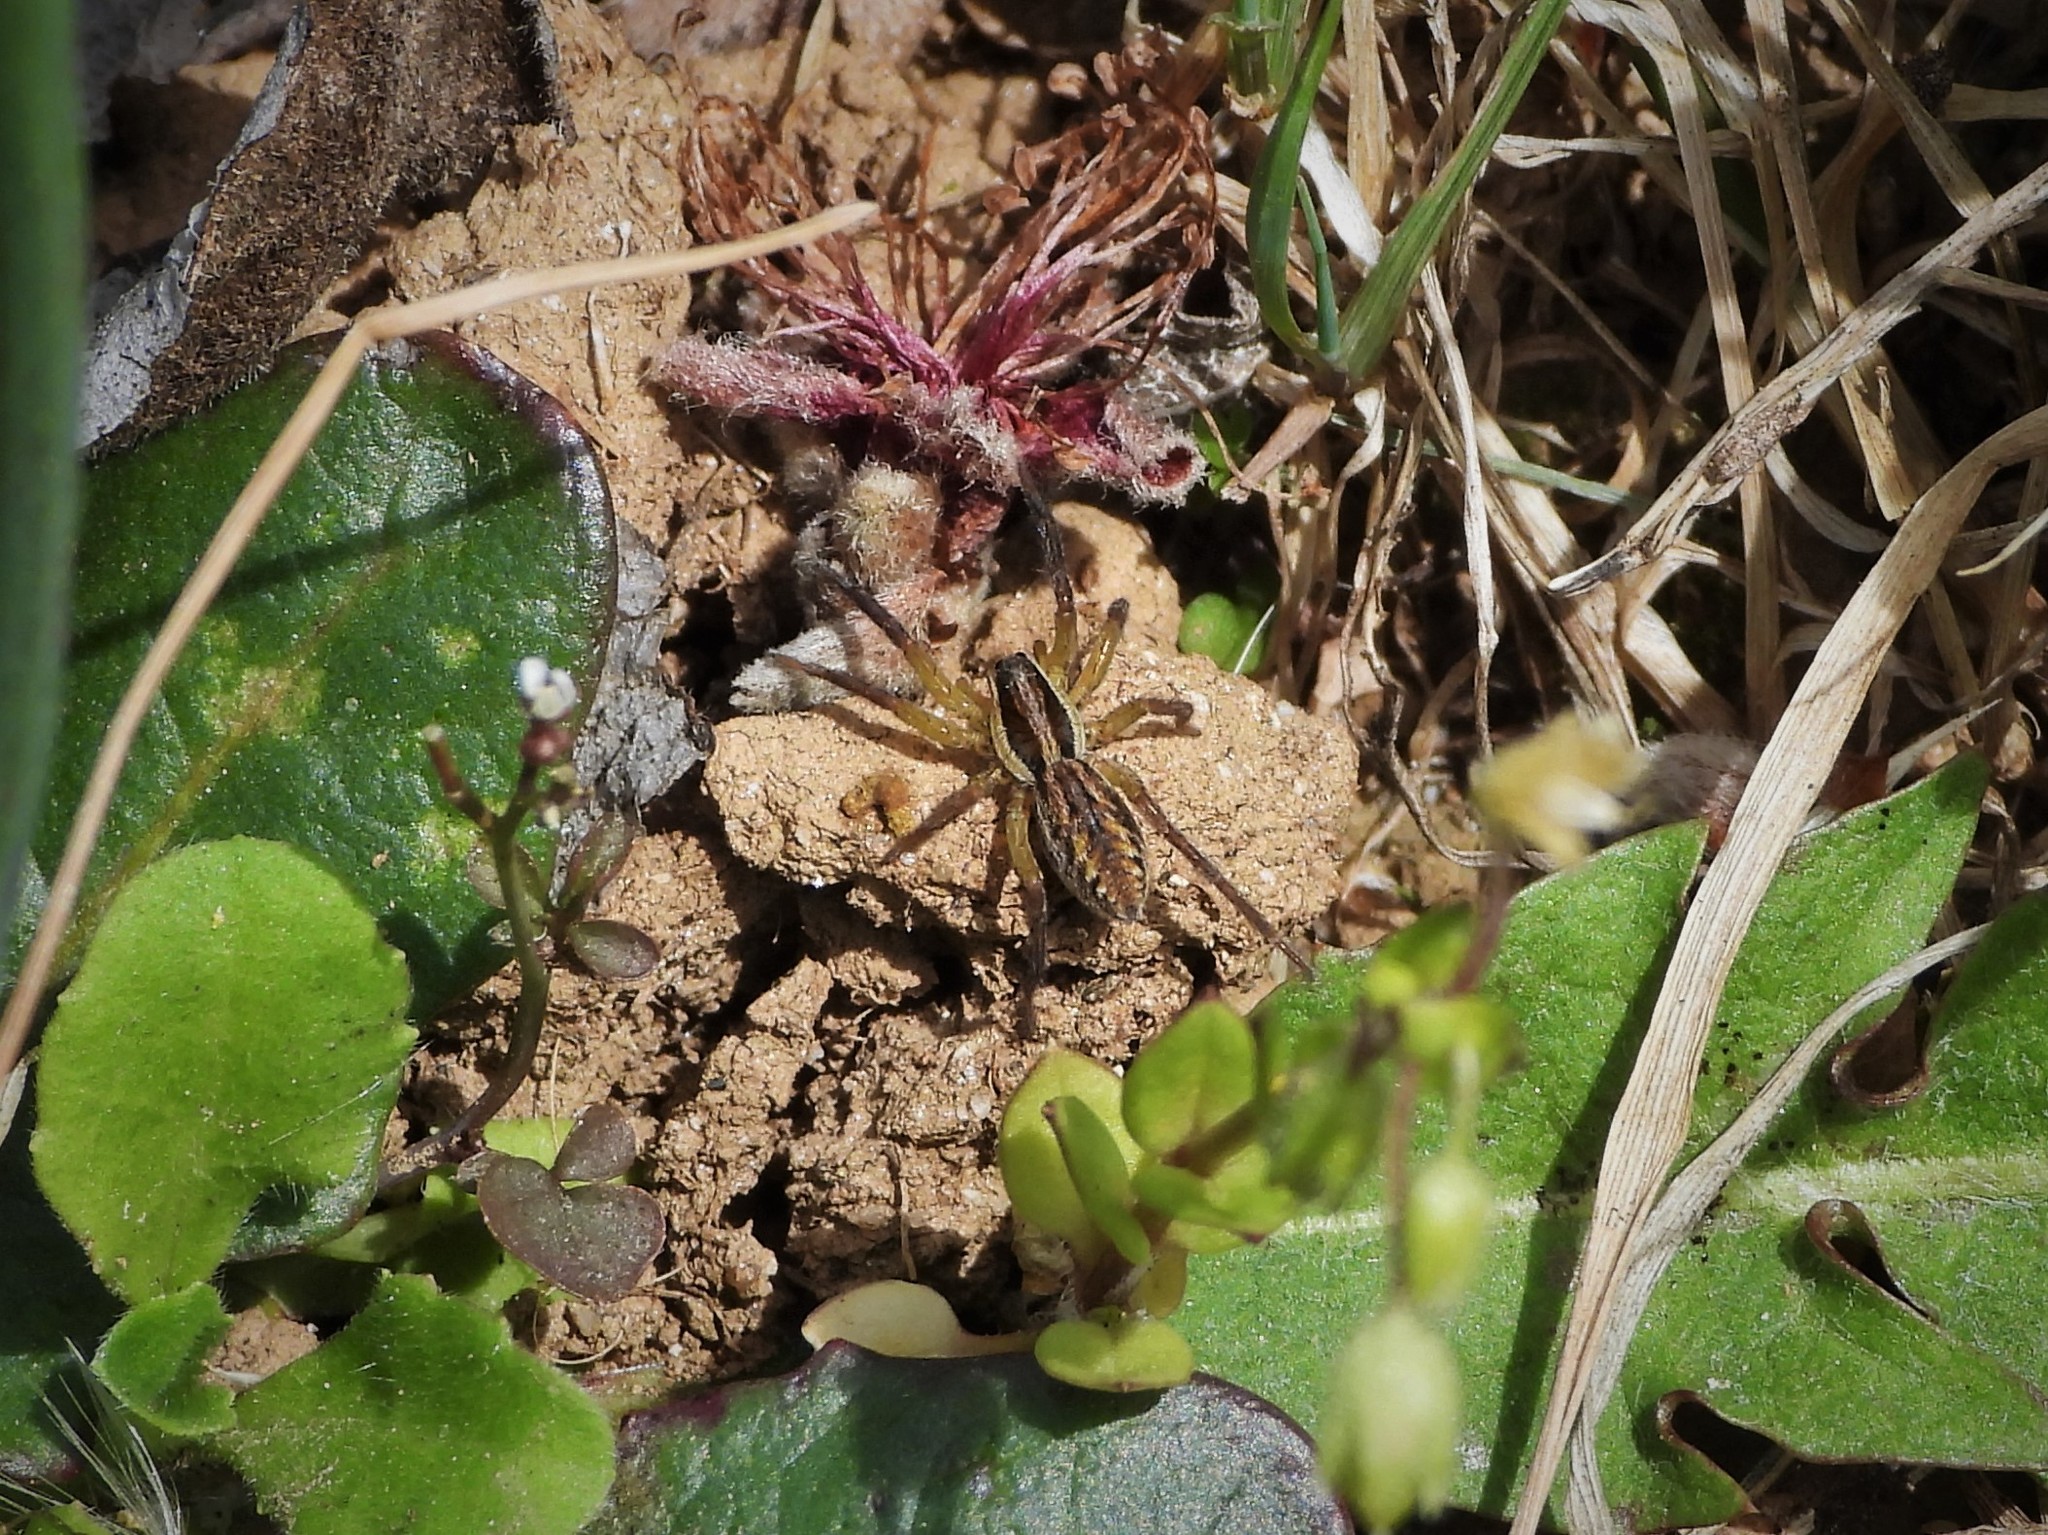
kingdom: Animalia
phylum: Arthropoda
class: Arachnida
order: Araneae
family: Lycosidae
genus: Hogna
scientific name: Hogna radiata
